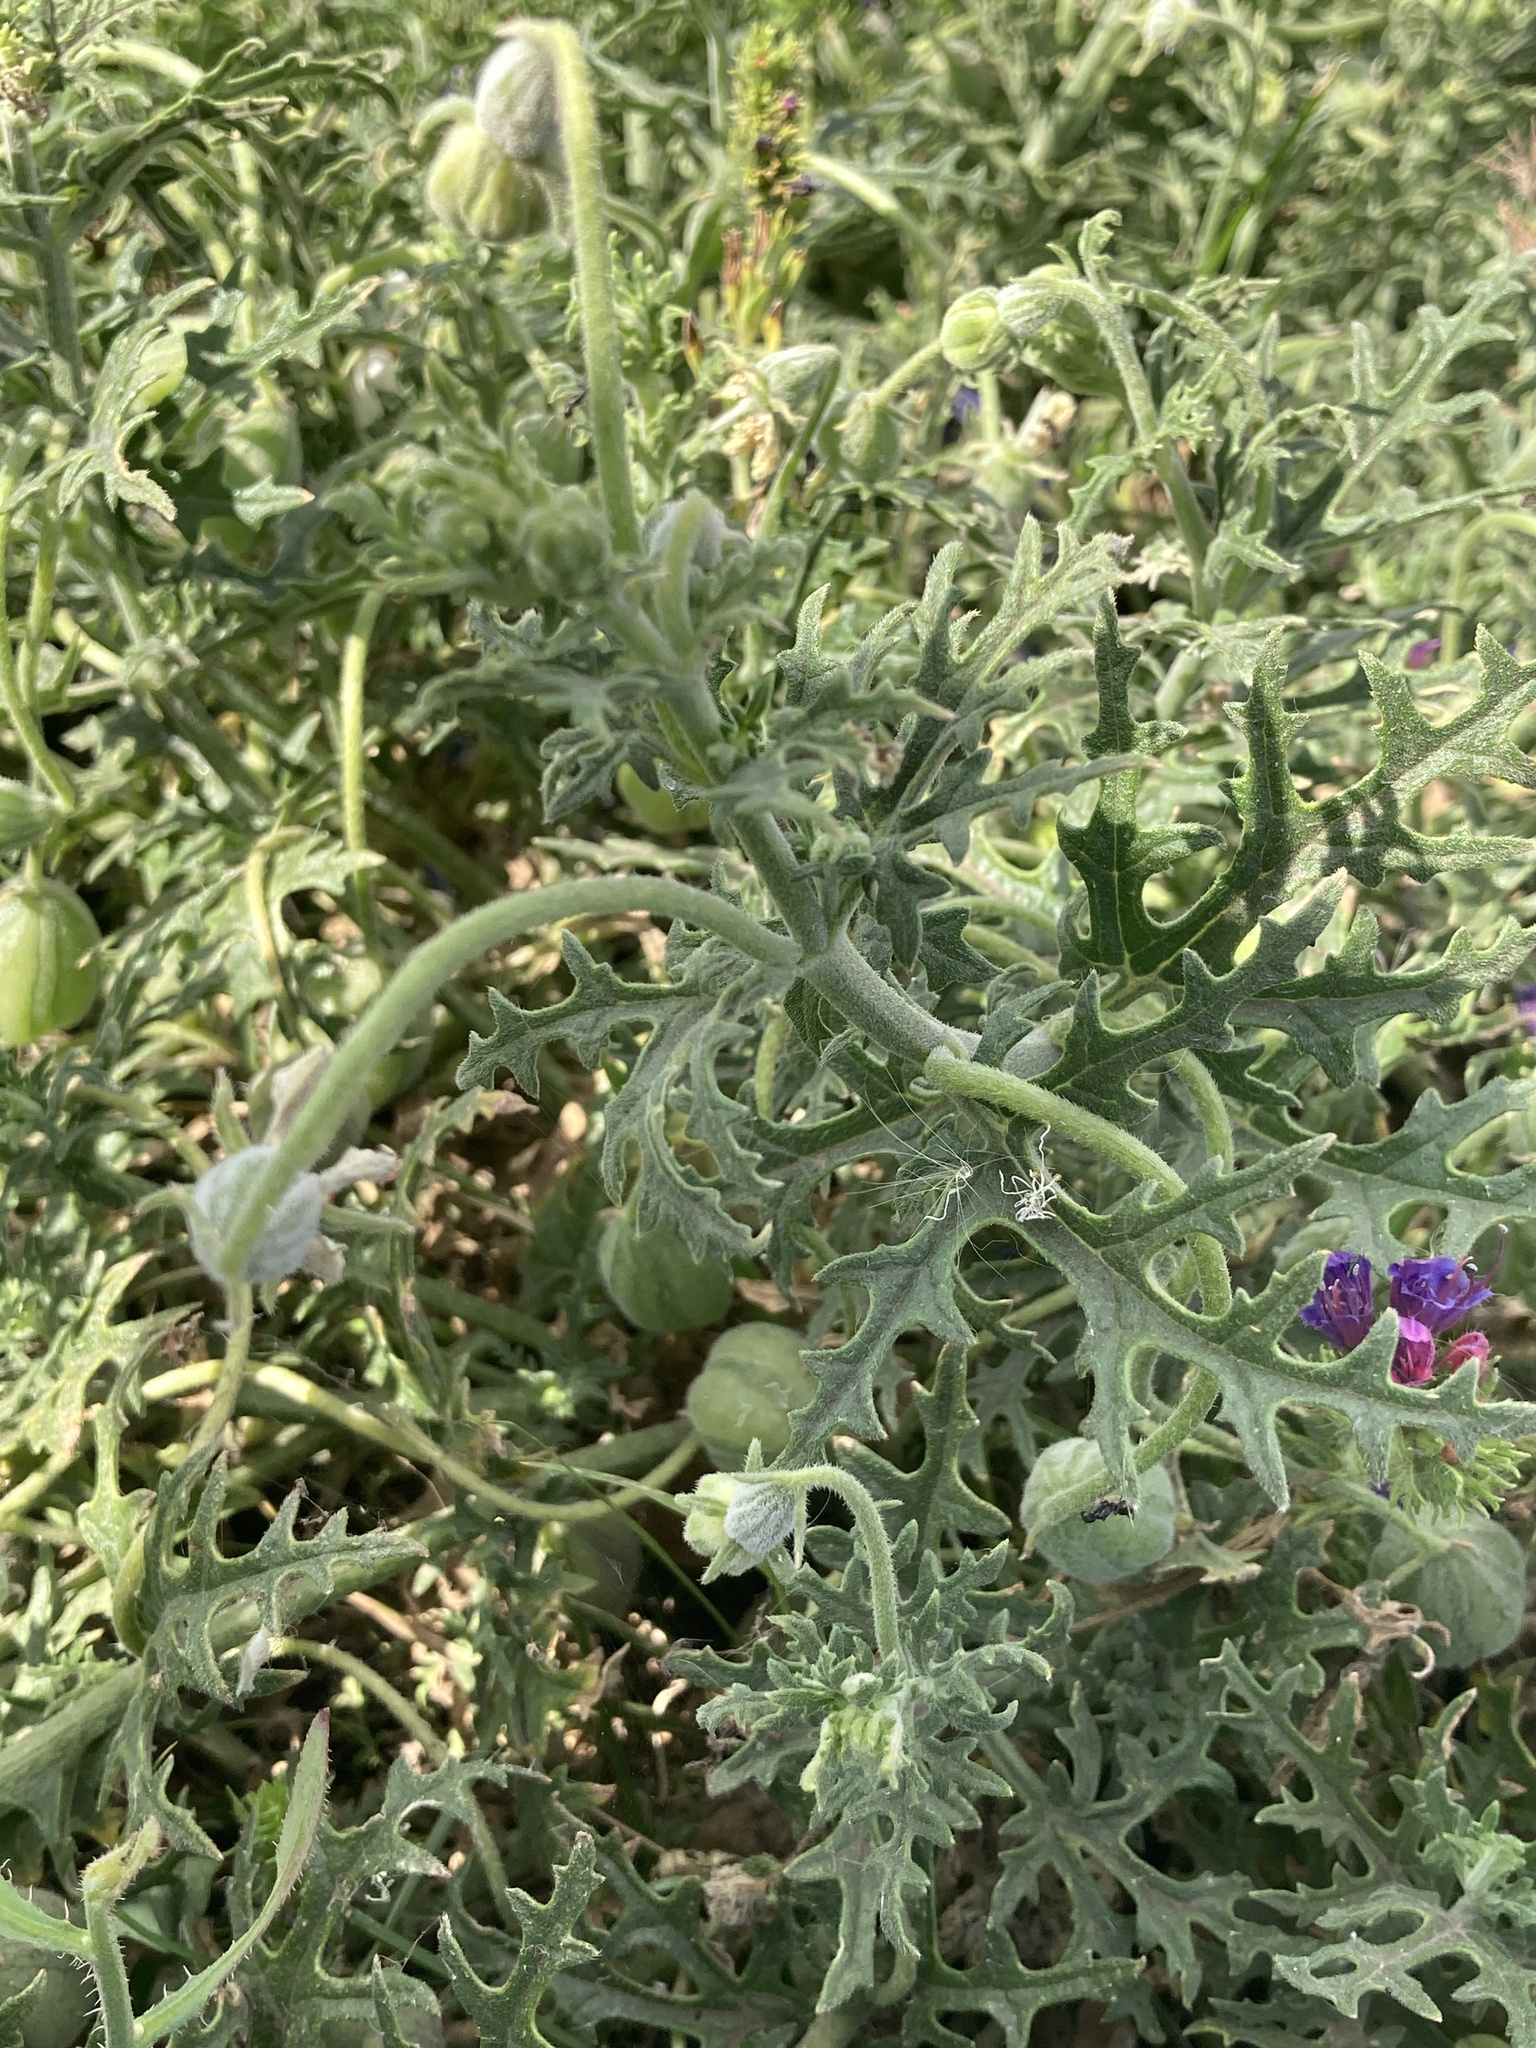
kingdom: Plantae
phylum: Tracheophyta
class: Magnoliopsida
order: Cornales
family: Loasaceae
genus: Blumenbachia
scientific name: Blumenbachia insignis
